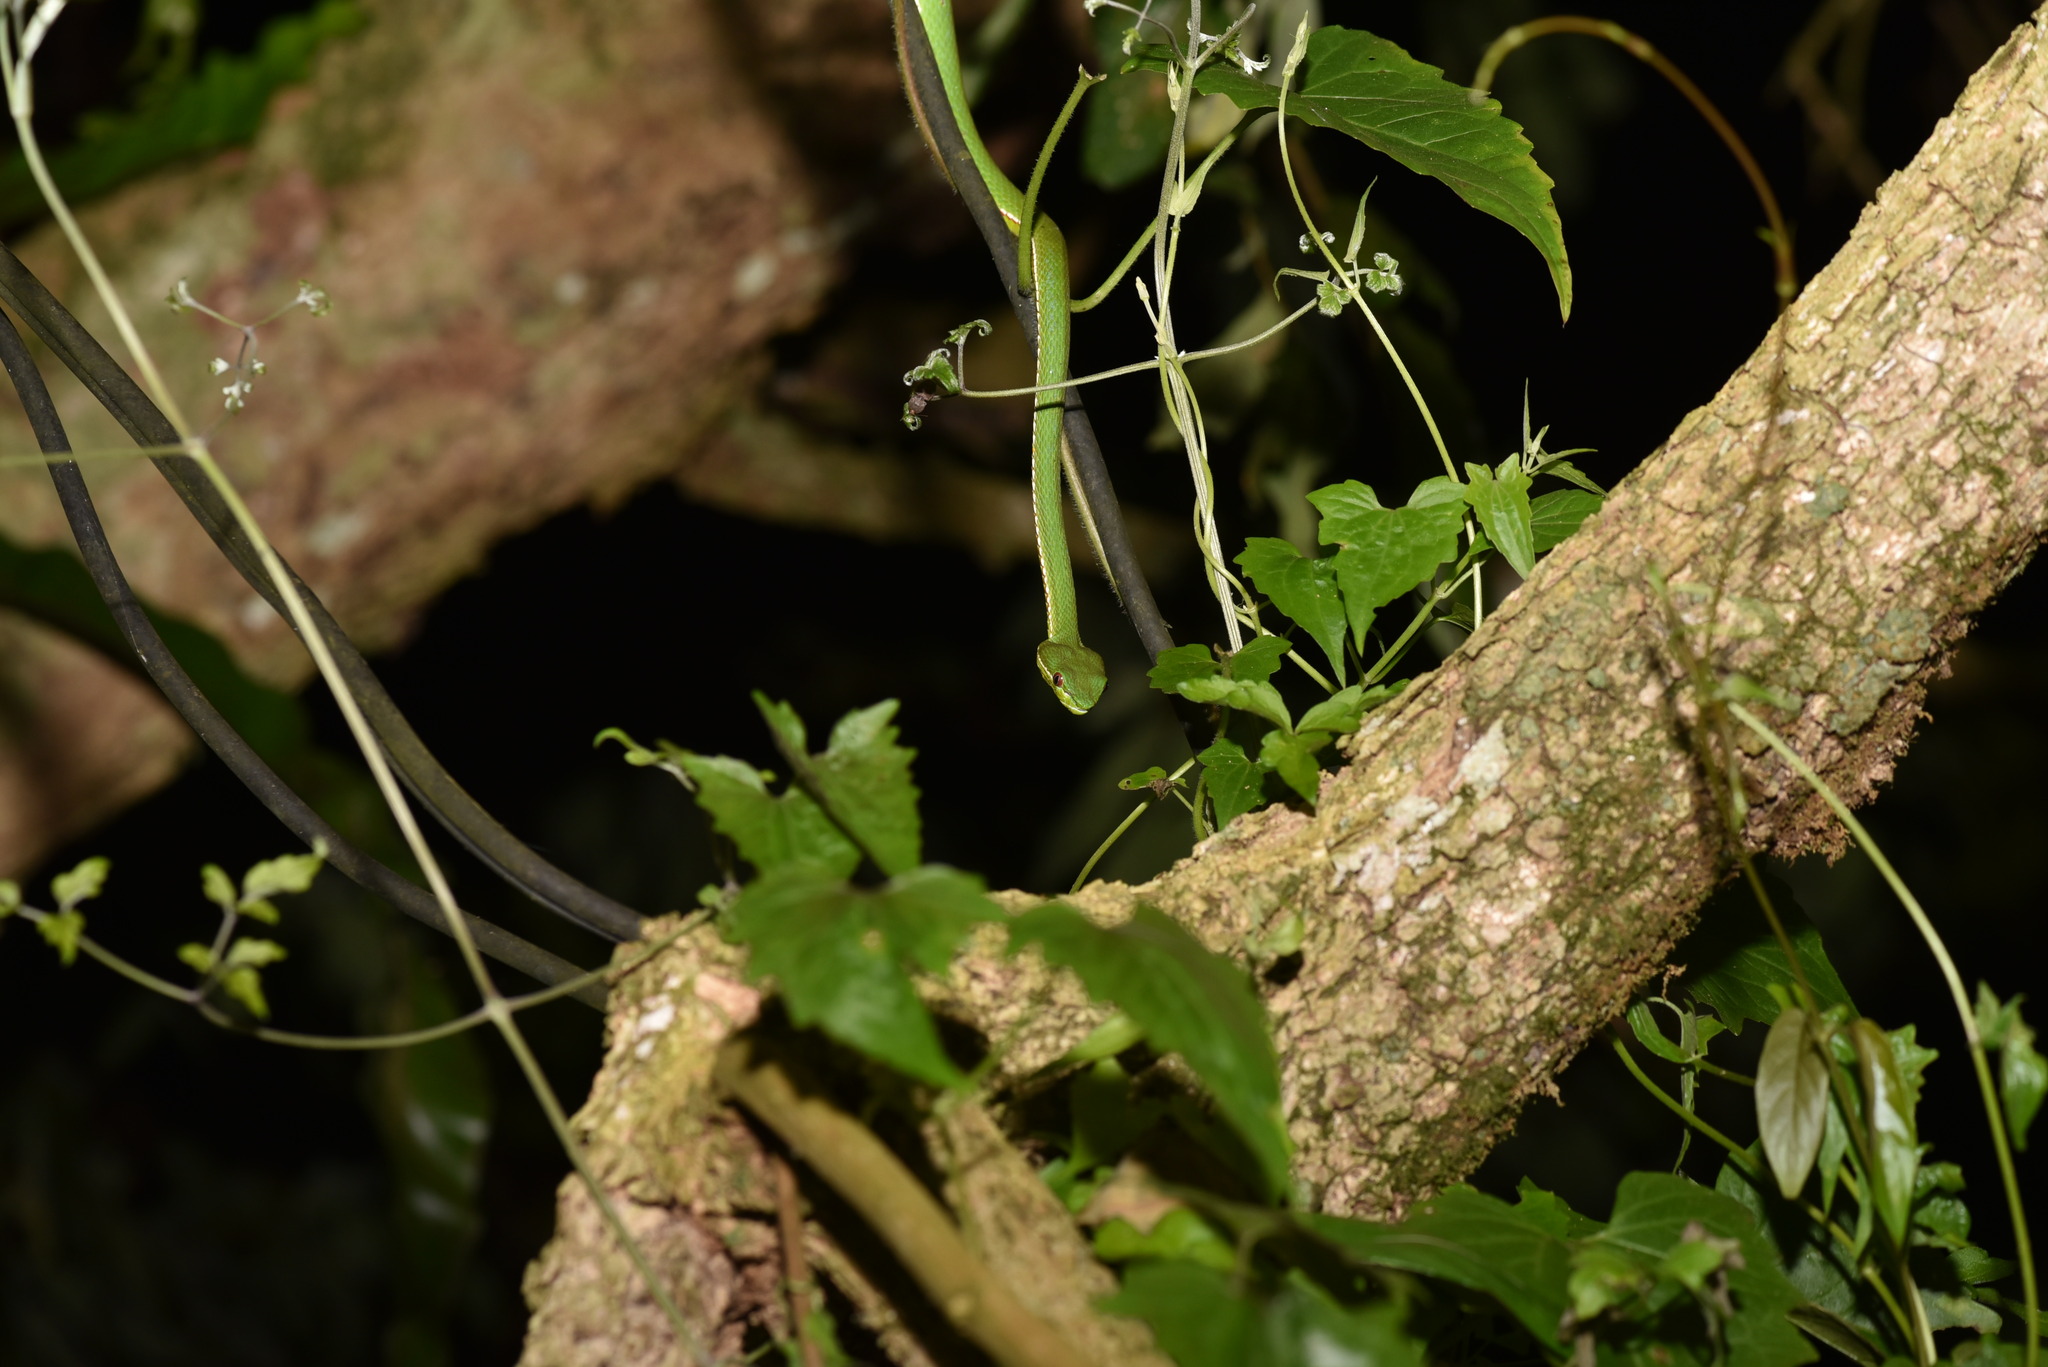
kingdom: Animalia
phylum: Chordata
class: Squamata
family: Viperidae
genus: Trimeresurus
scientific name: Trimeresurus stejnegeri
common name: Chen’s bamboo pit viper
